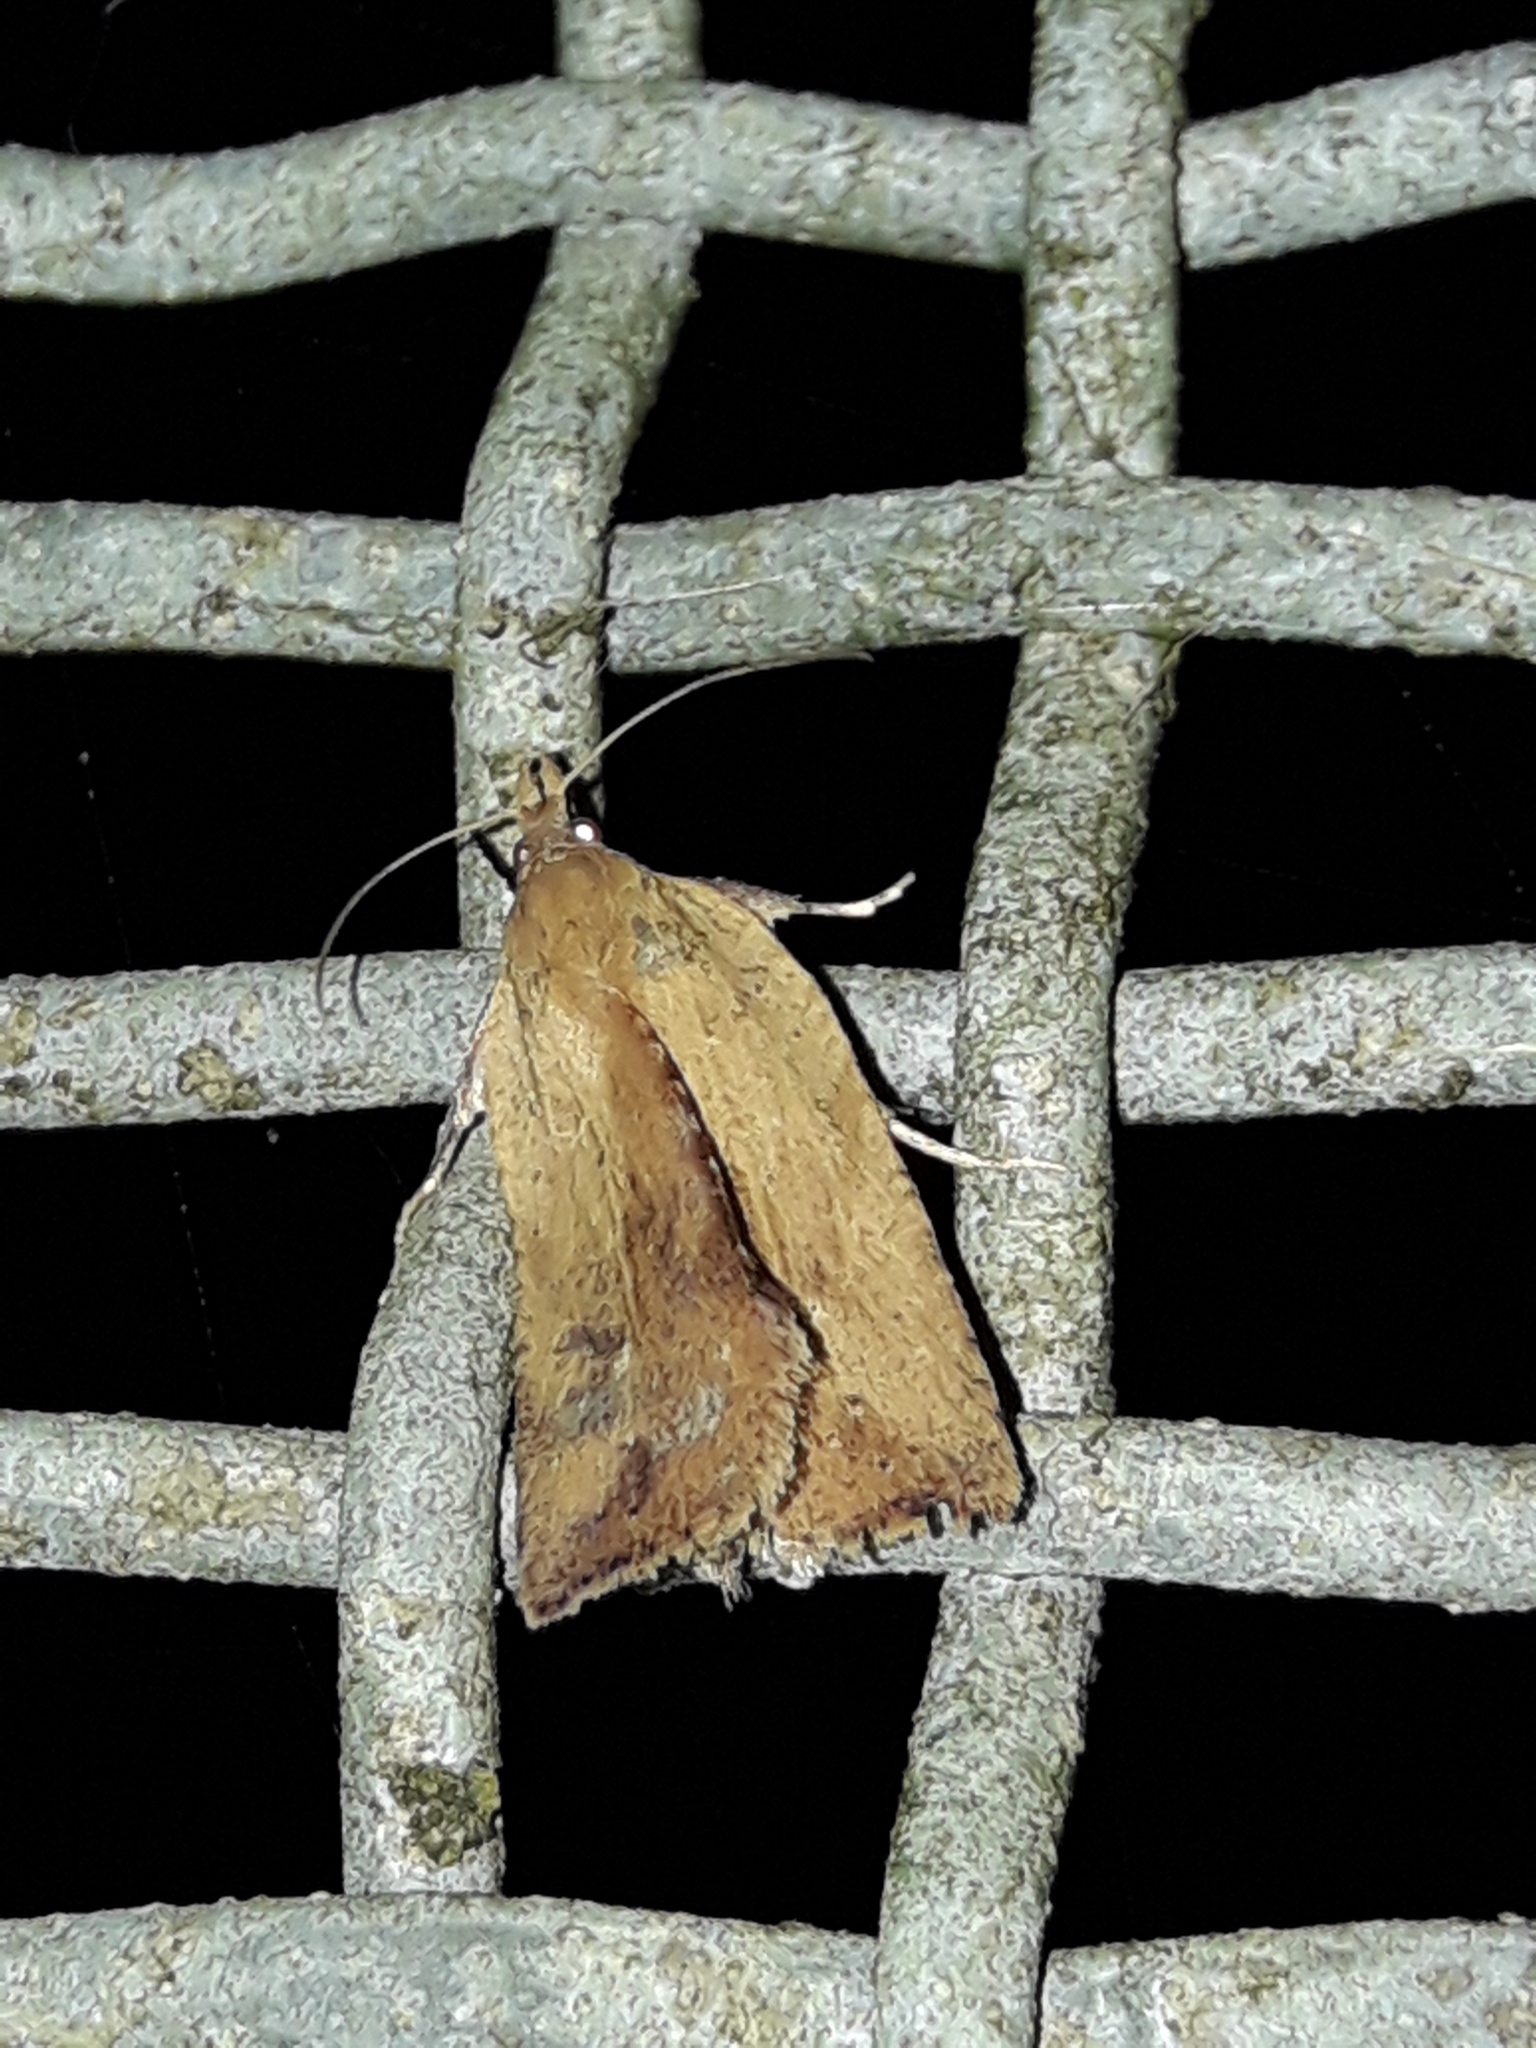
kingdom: Animalia
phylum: Arthropoda
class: Insecta
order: Lepidoptera
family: Tortricidae
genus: Planotortrix
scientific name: Planotortrix notophaea
